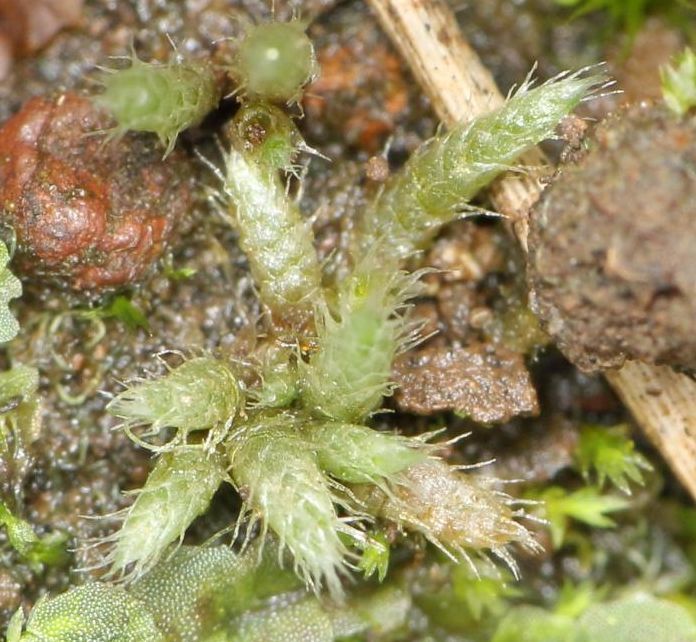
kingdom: Plantae
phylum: Bryophyta
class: Bryopsida
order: Bryales
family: Bryaceae
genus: Bryum
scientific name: Bryum argenteum
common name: Silver-moss
